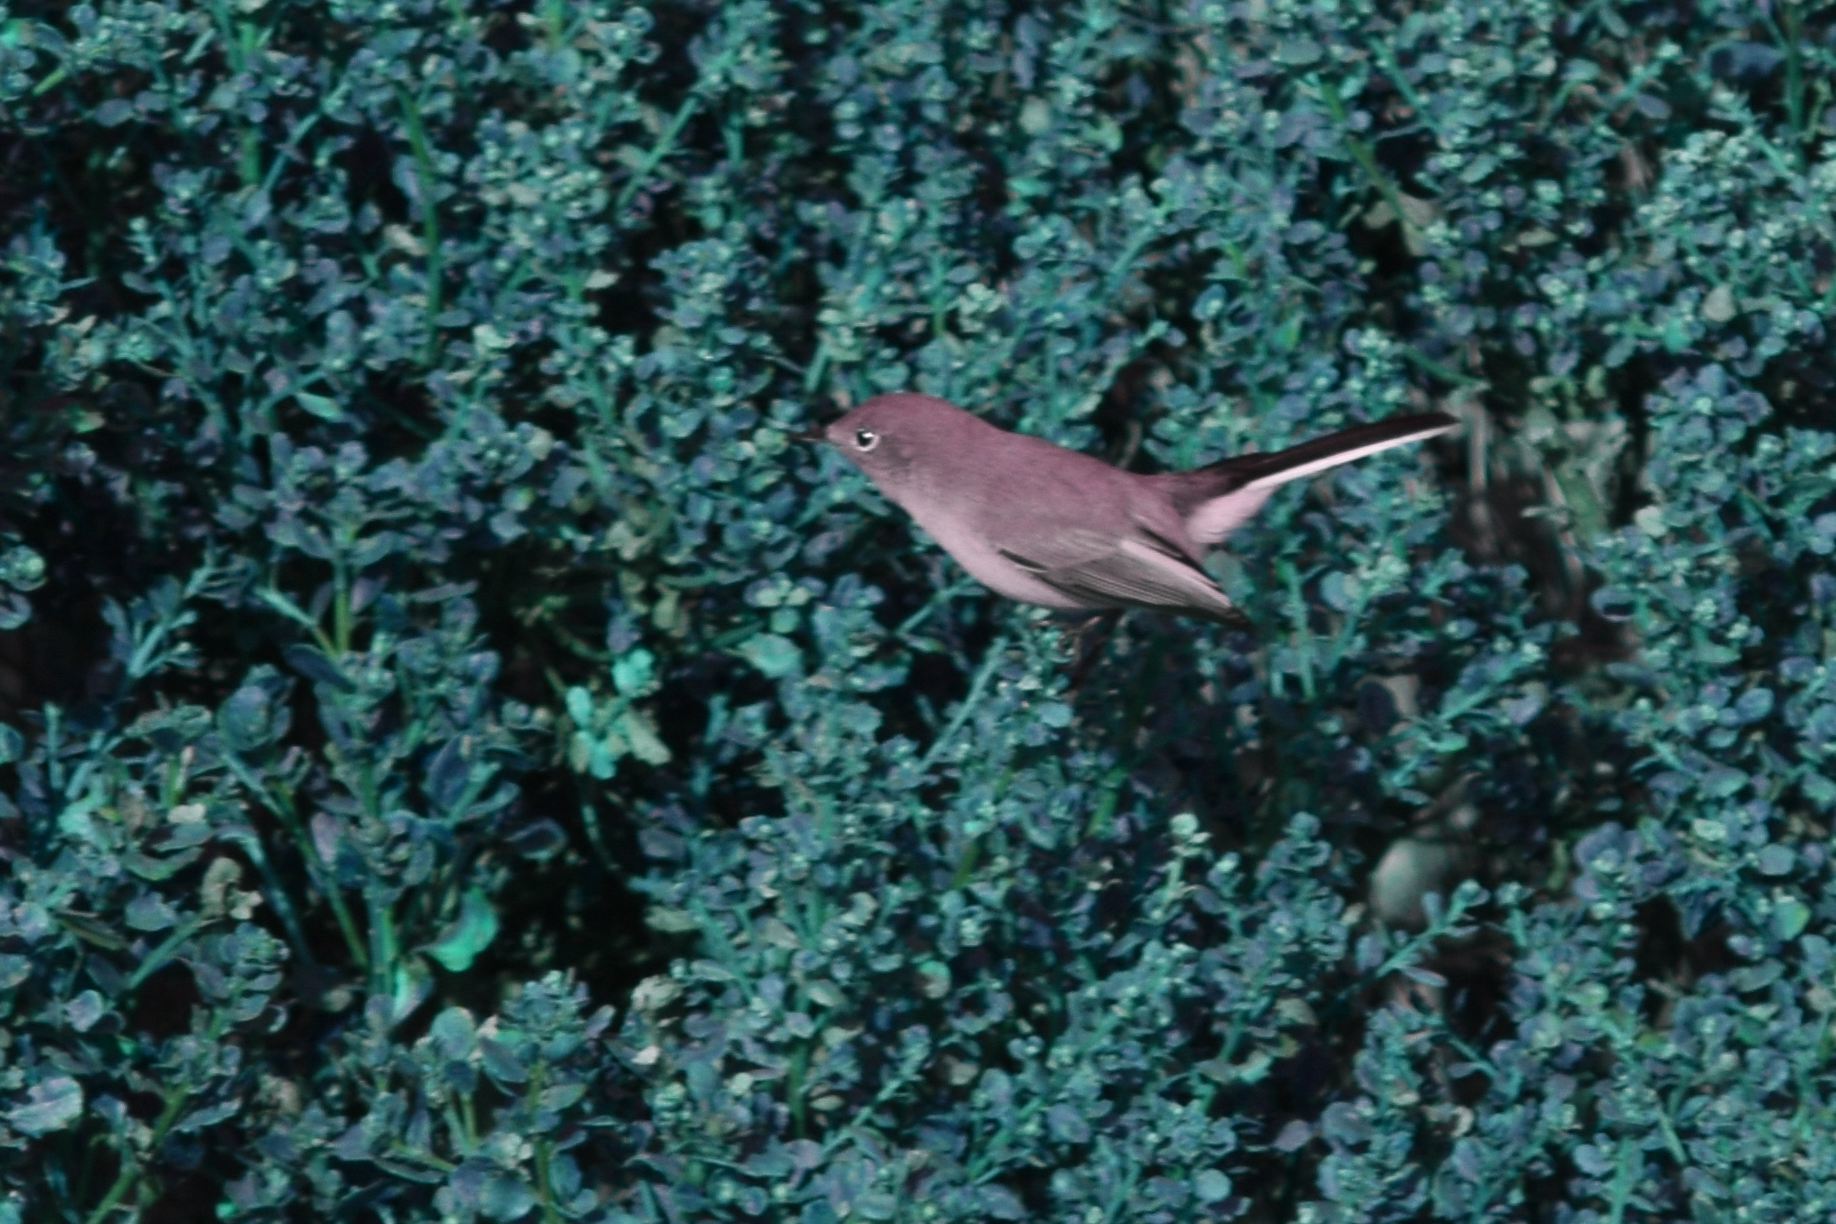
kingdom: Animalia
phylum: Chordata
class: Aves
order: Passeriformes
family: Polioptilidae
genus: Polioptila
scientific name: Polioptila caerulea
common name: Blue-gray gnatcatcher
